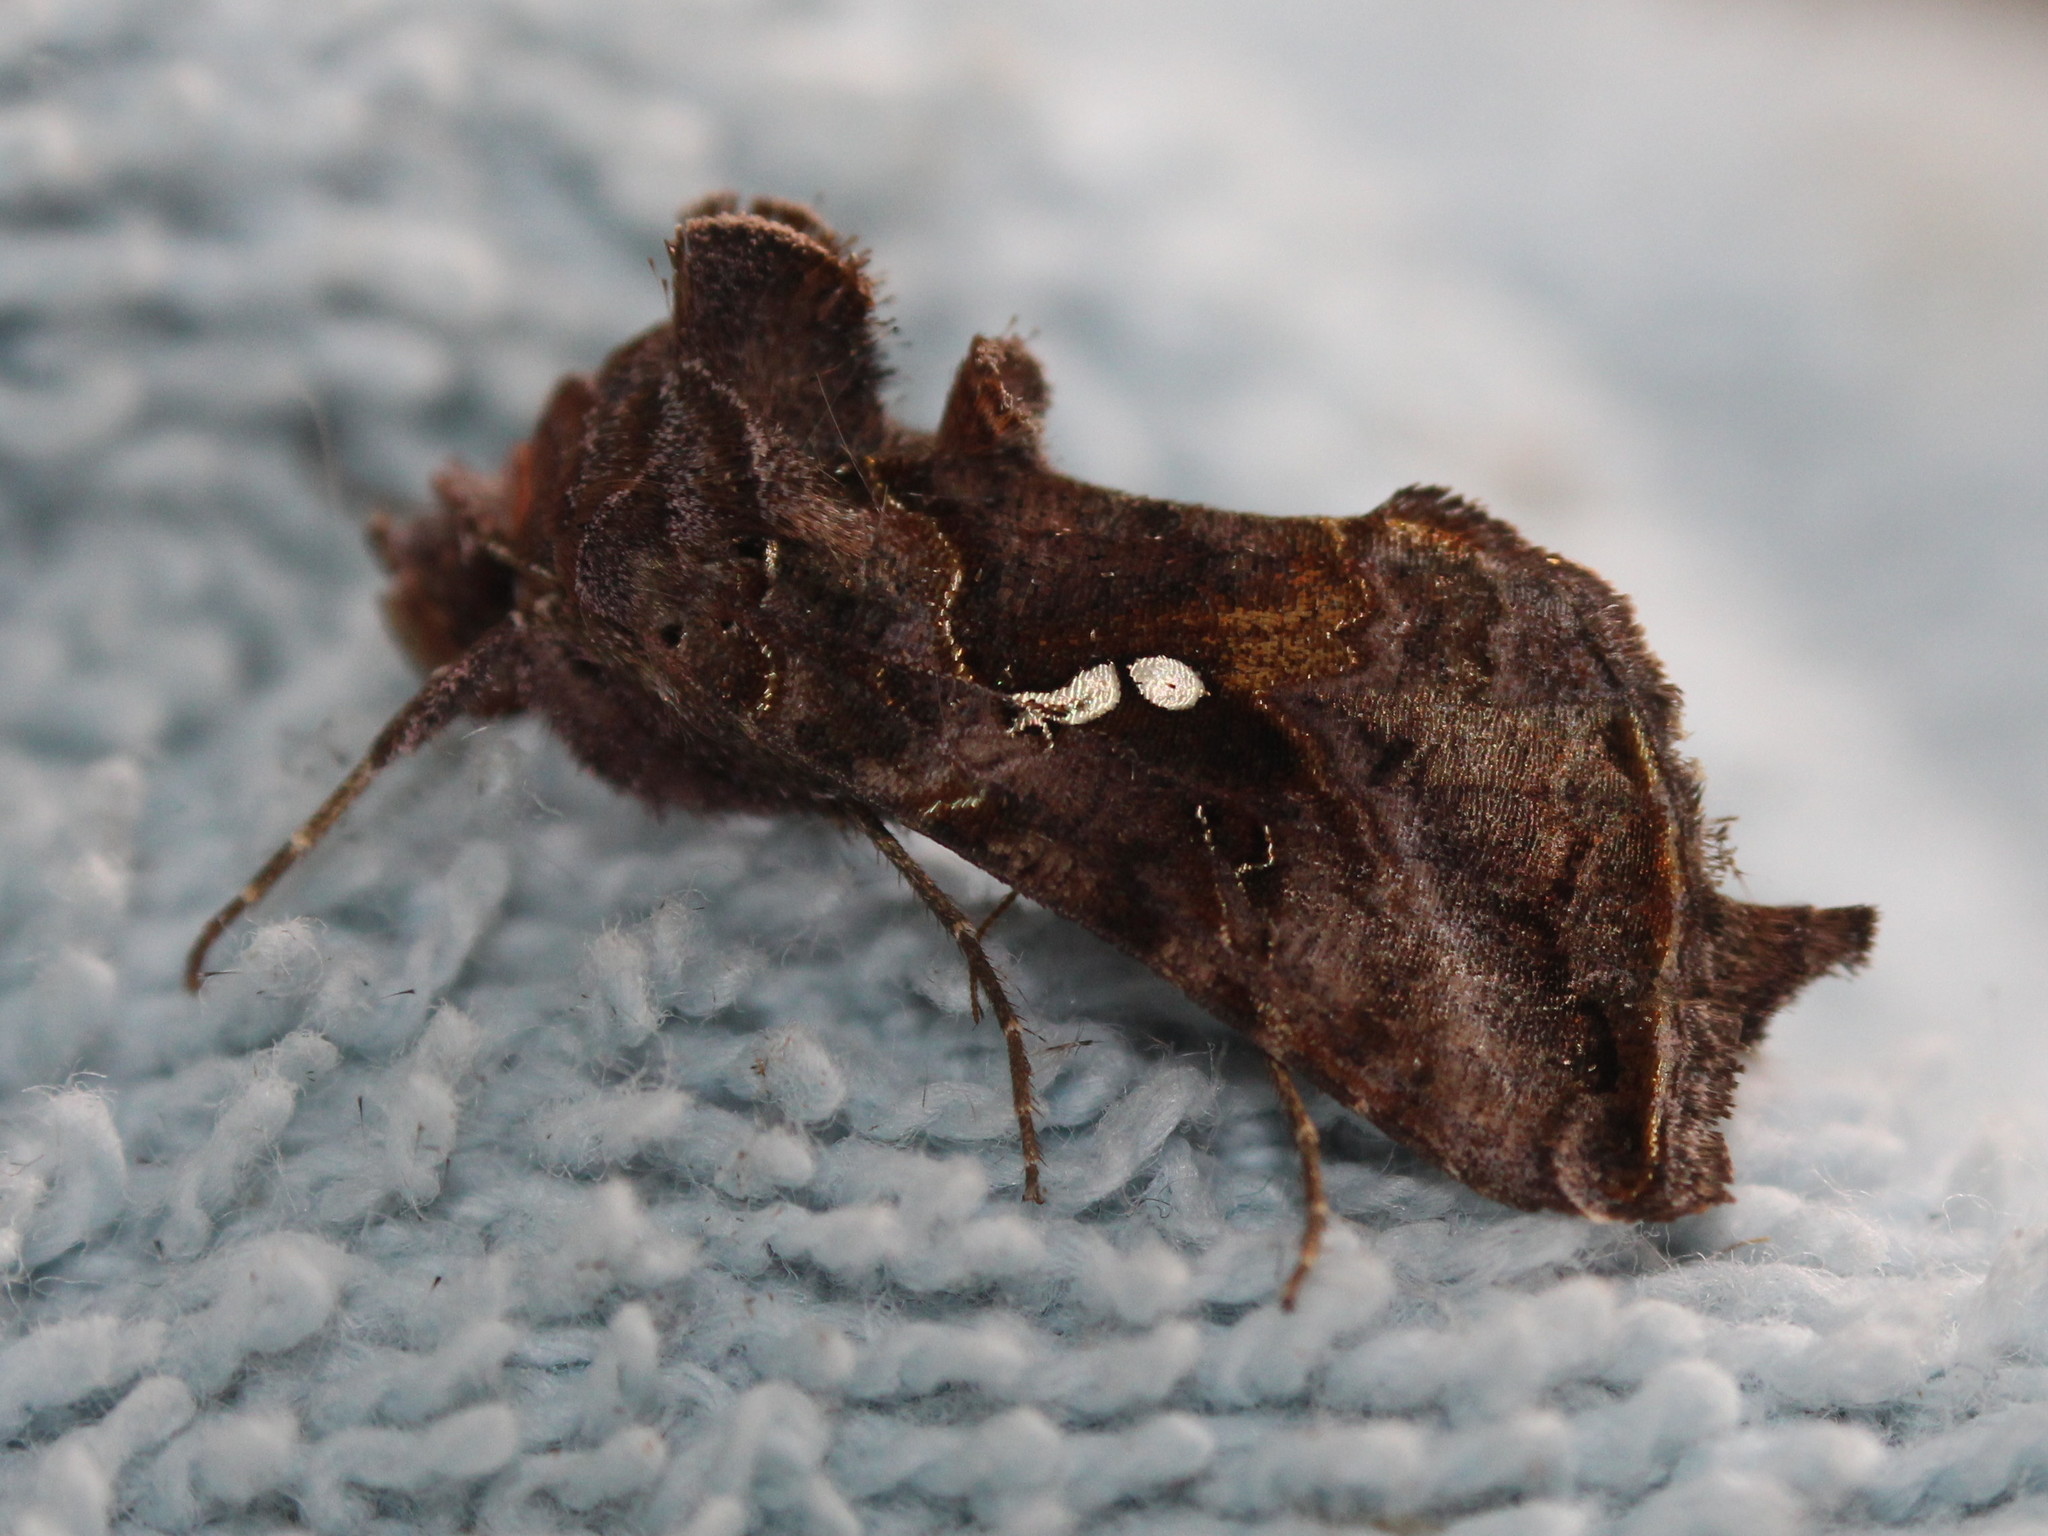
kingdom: Animalia
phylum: Arthropoda
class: Insecta
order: Lepidoptera
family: Noctuidae
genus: Autographa
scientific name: Autographa precationis
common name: Common looper moth
